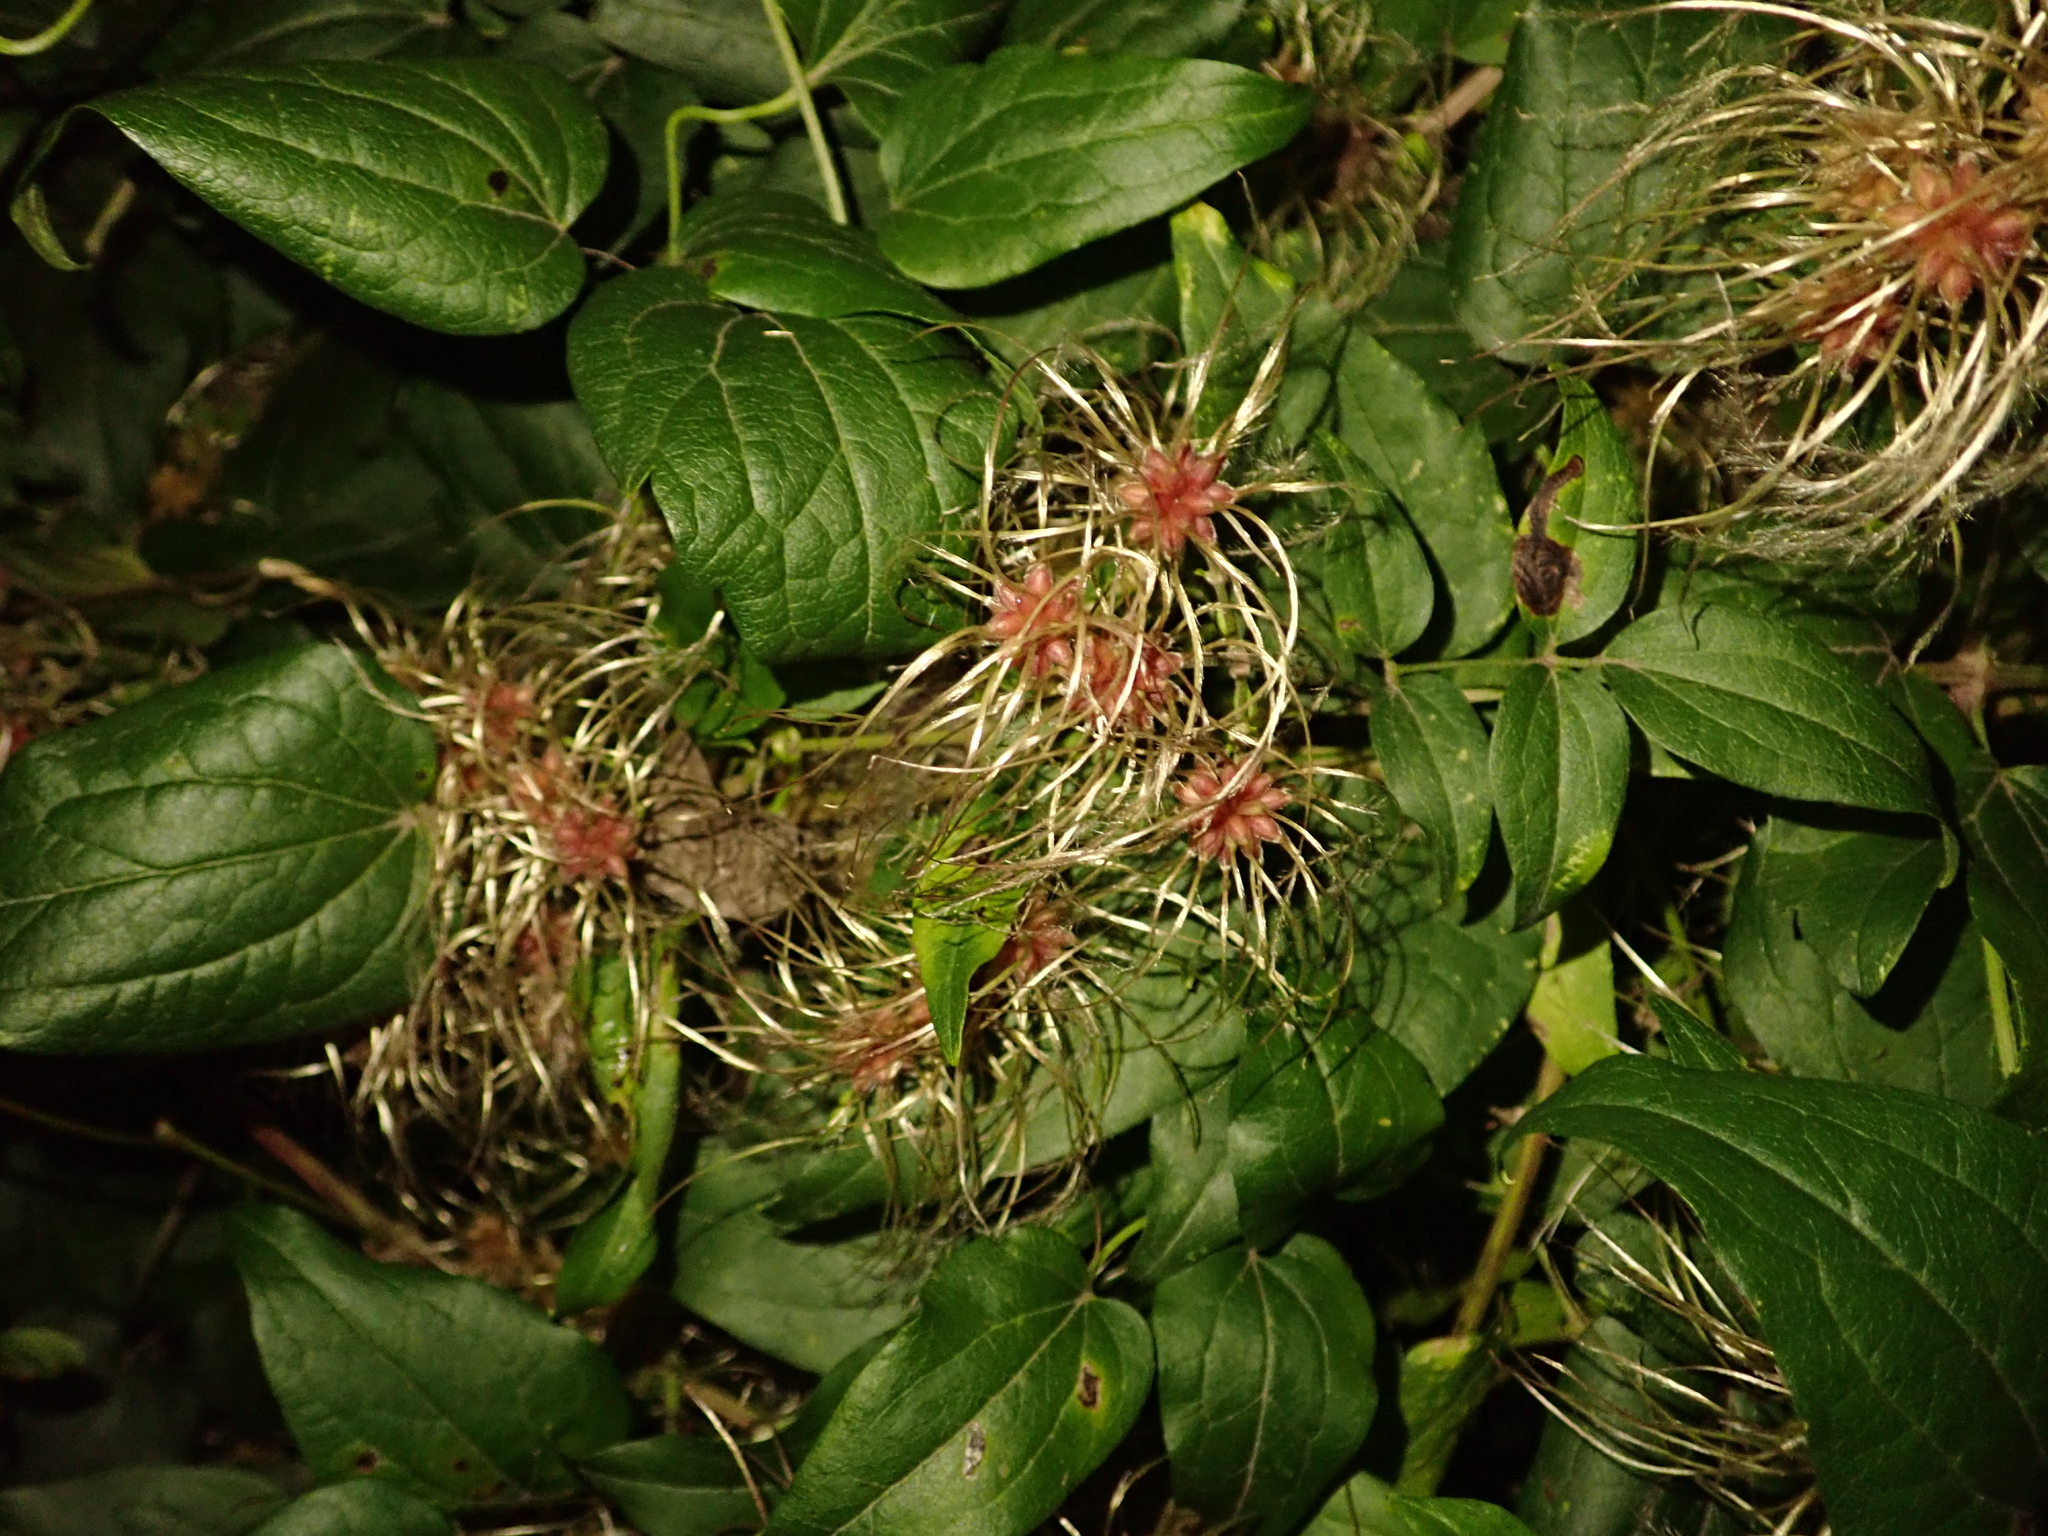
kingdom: Plantae
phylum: Tracheophyta
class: Magnoliopsida
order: Ranunculales
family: Ranunculaceae
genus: Clematis
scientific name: Clematis vitalba
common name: Evergreen clematis
